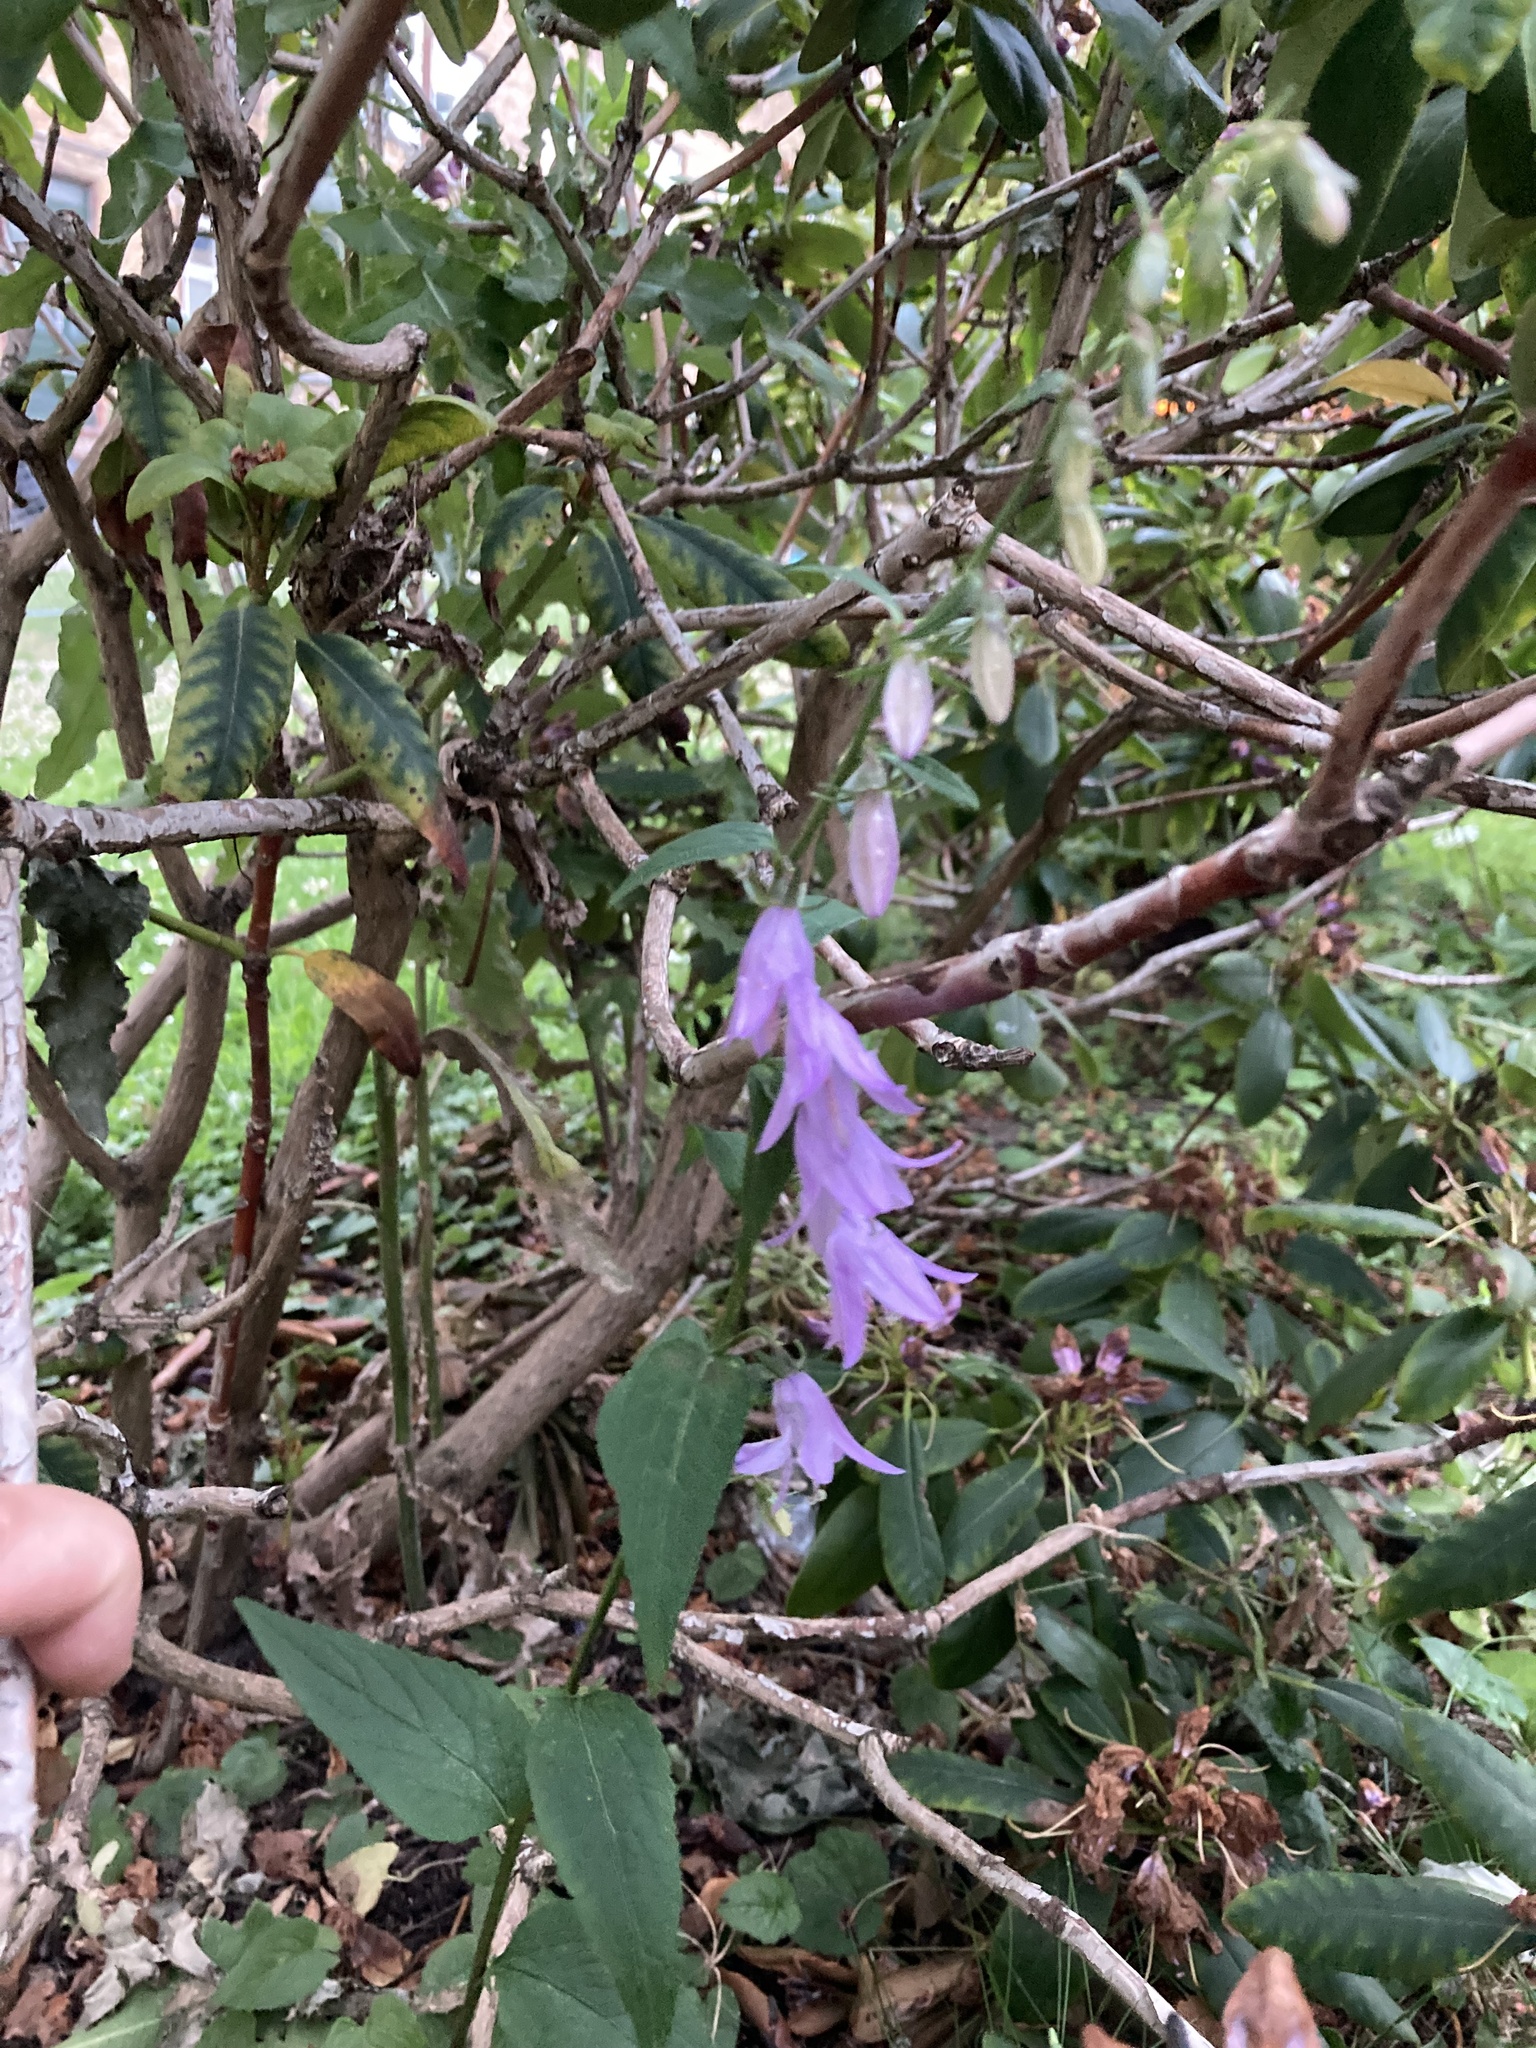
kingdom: Plantae
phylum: Tracheophyta
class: Magnoliopsida
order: Asterales
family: Campanulaceae
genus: Campanula
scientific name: Campanula rapunculoides
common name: Creeping bellflower
